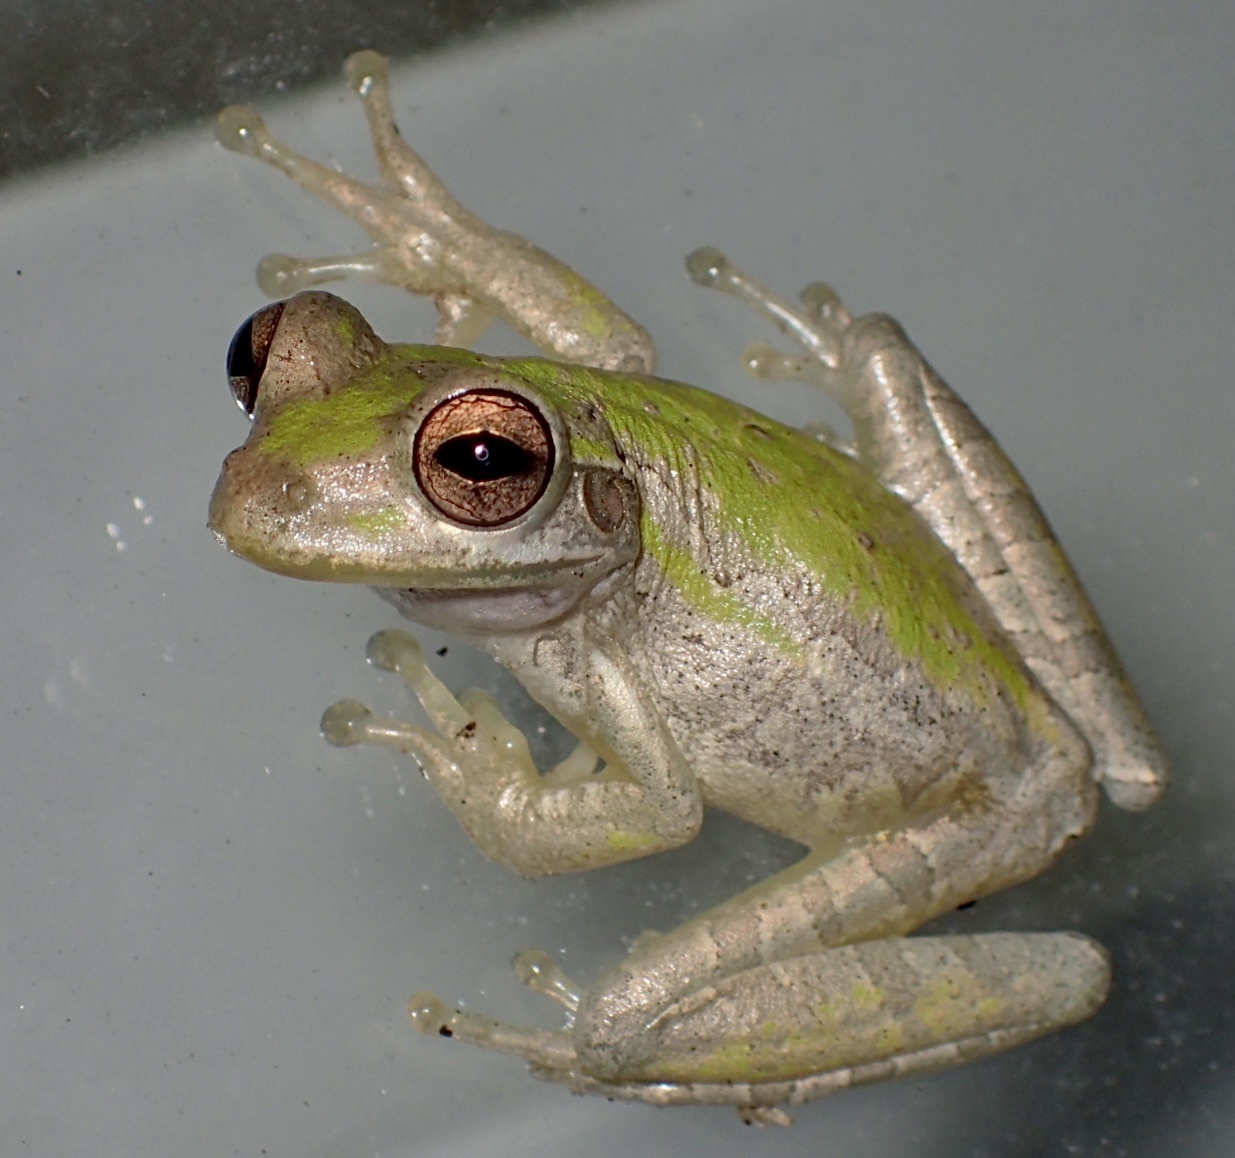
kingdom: Animalia
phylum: Chordata
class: Amphibia
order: Anura
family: Hylidae
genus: Osteopilus
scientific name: Osteopilus septentrionalis
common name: Cuban treefrog
